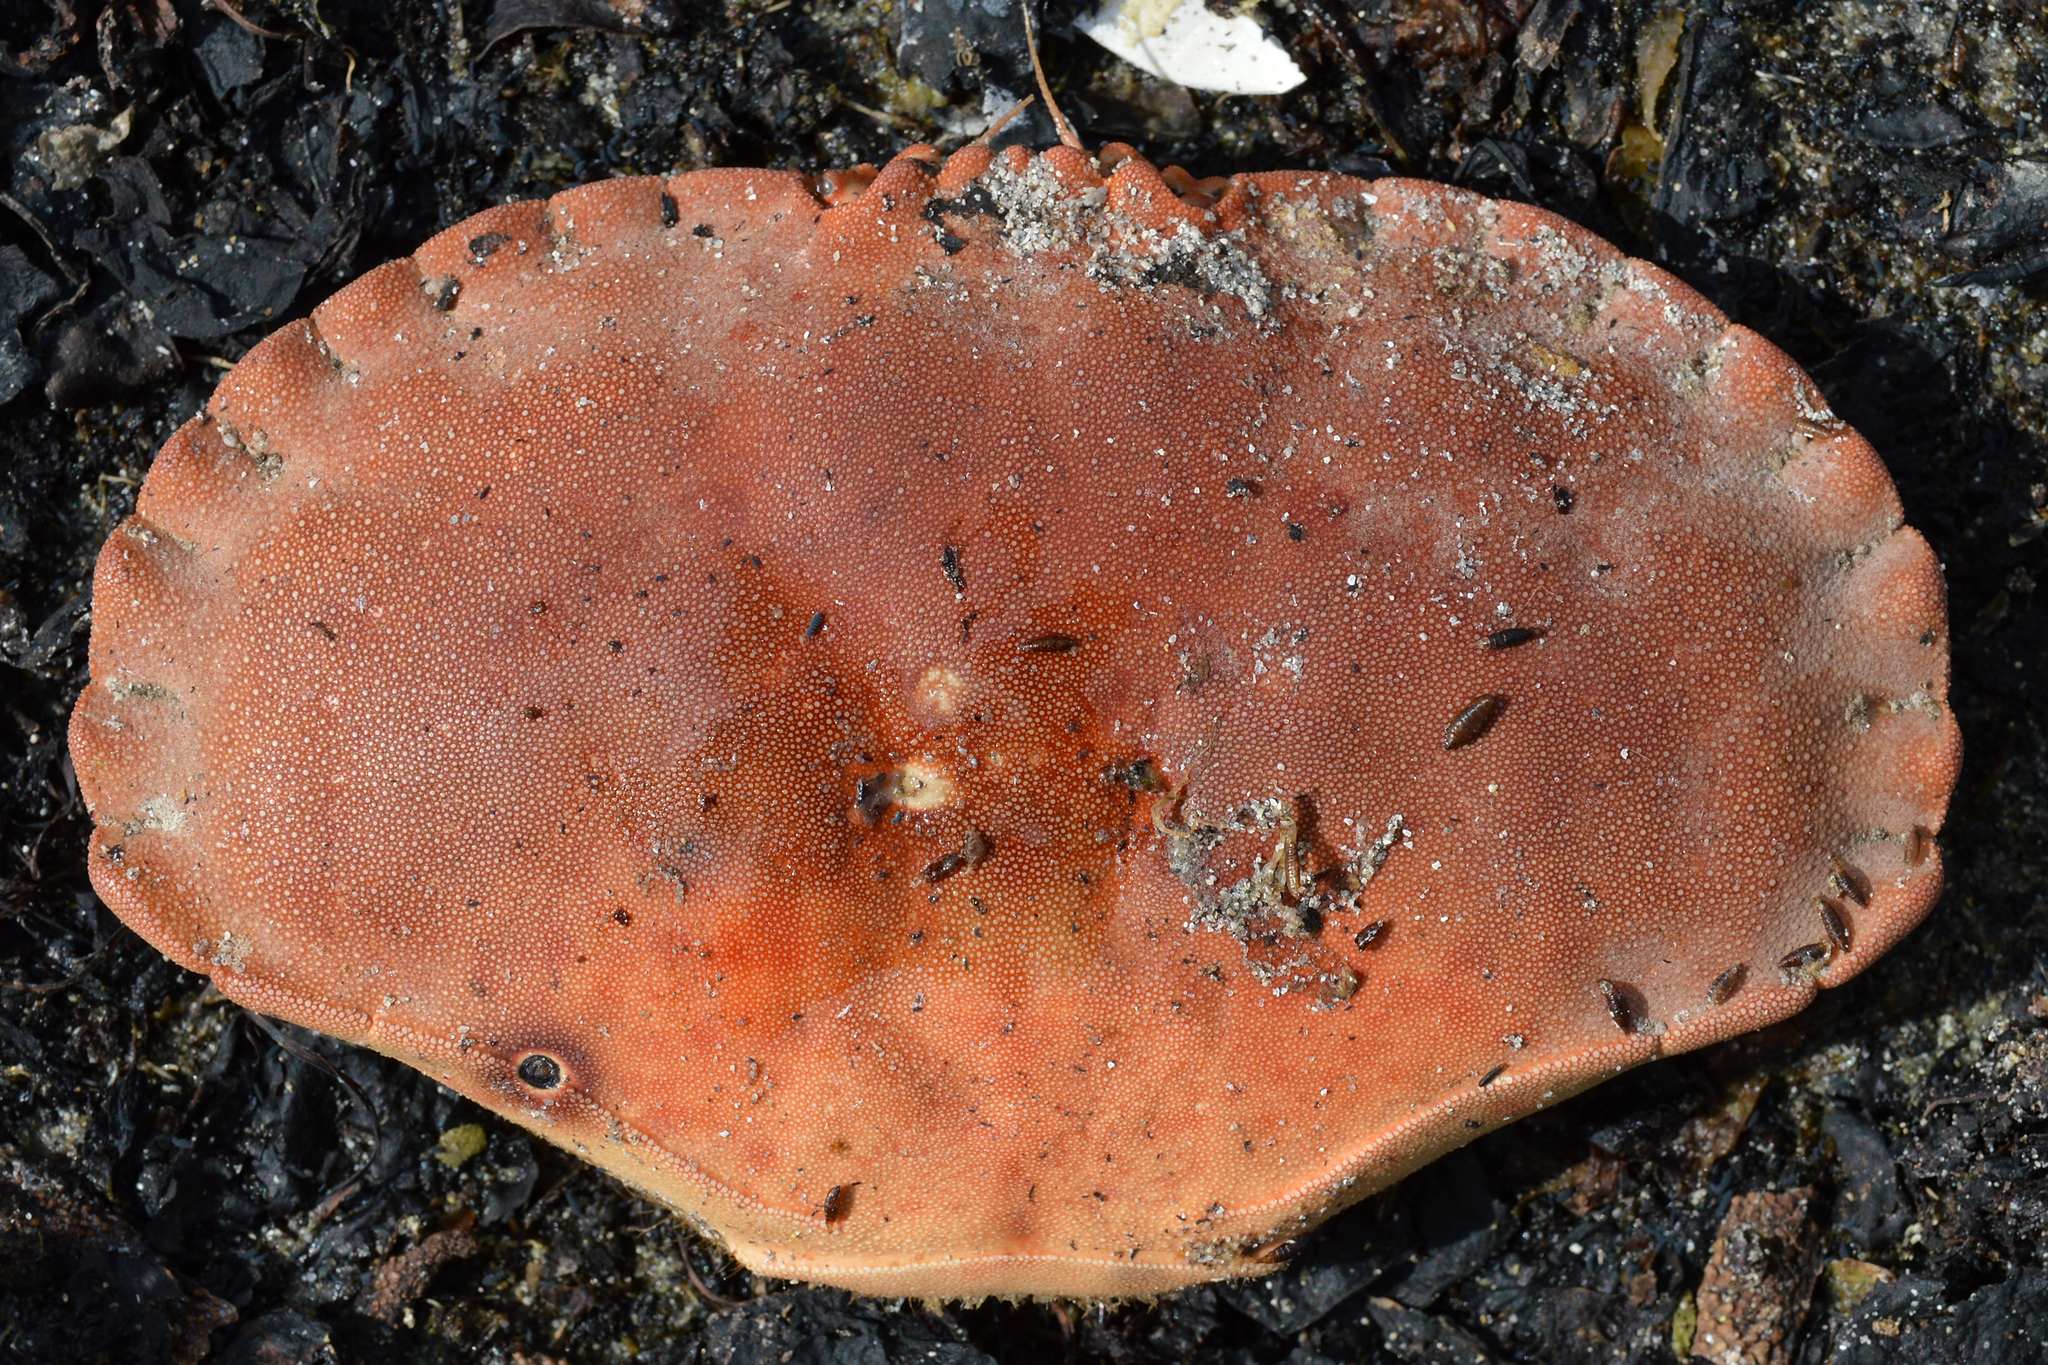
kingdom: Animalia
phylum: Arthropoda
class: Malacostraca
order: Decapoda
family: Cancridae
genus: Cancer
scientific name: Cancer pagurus
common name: Edible crab
